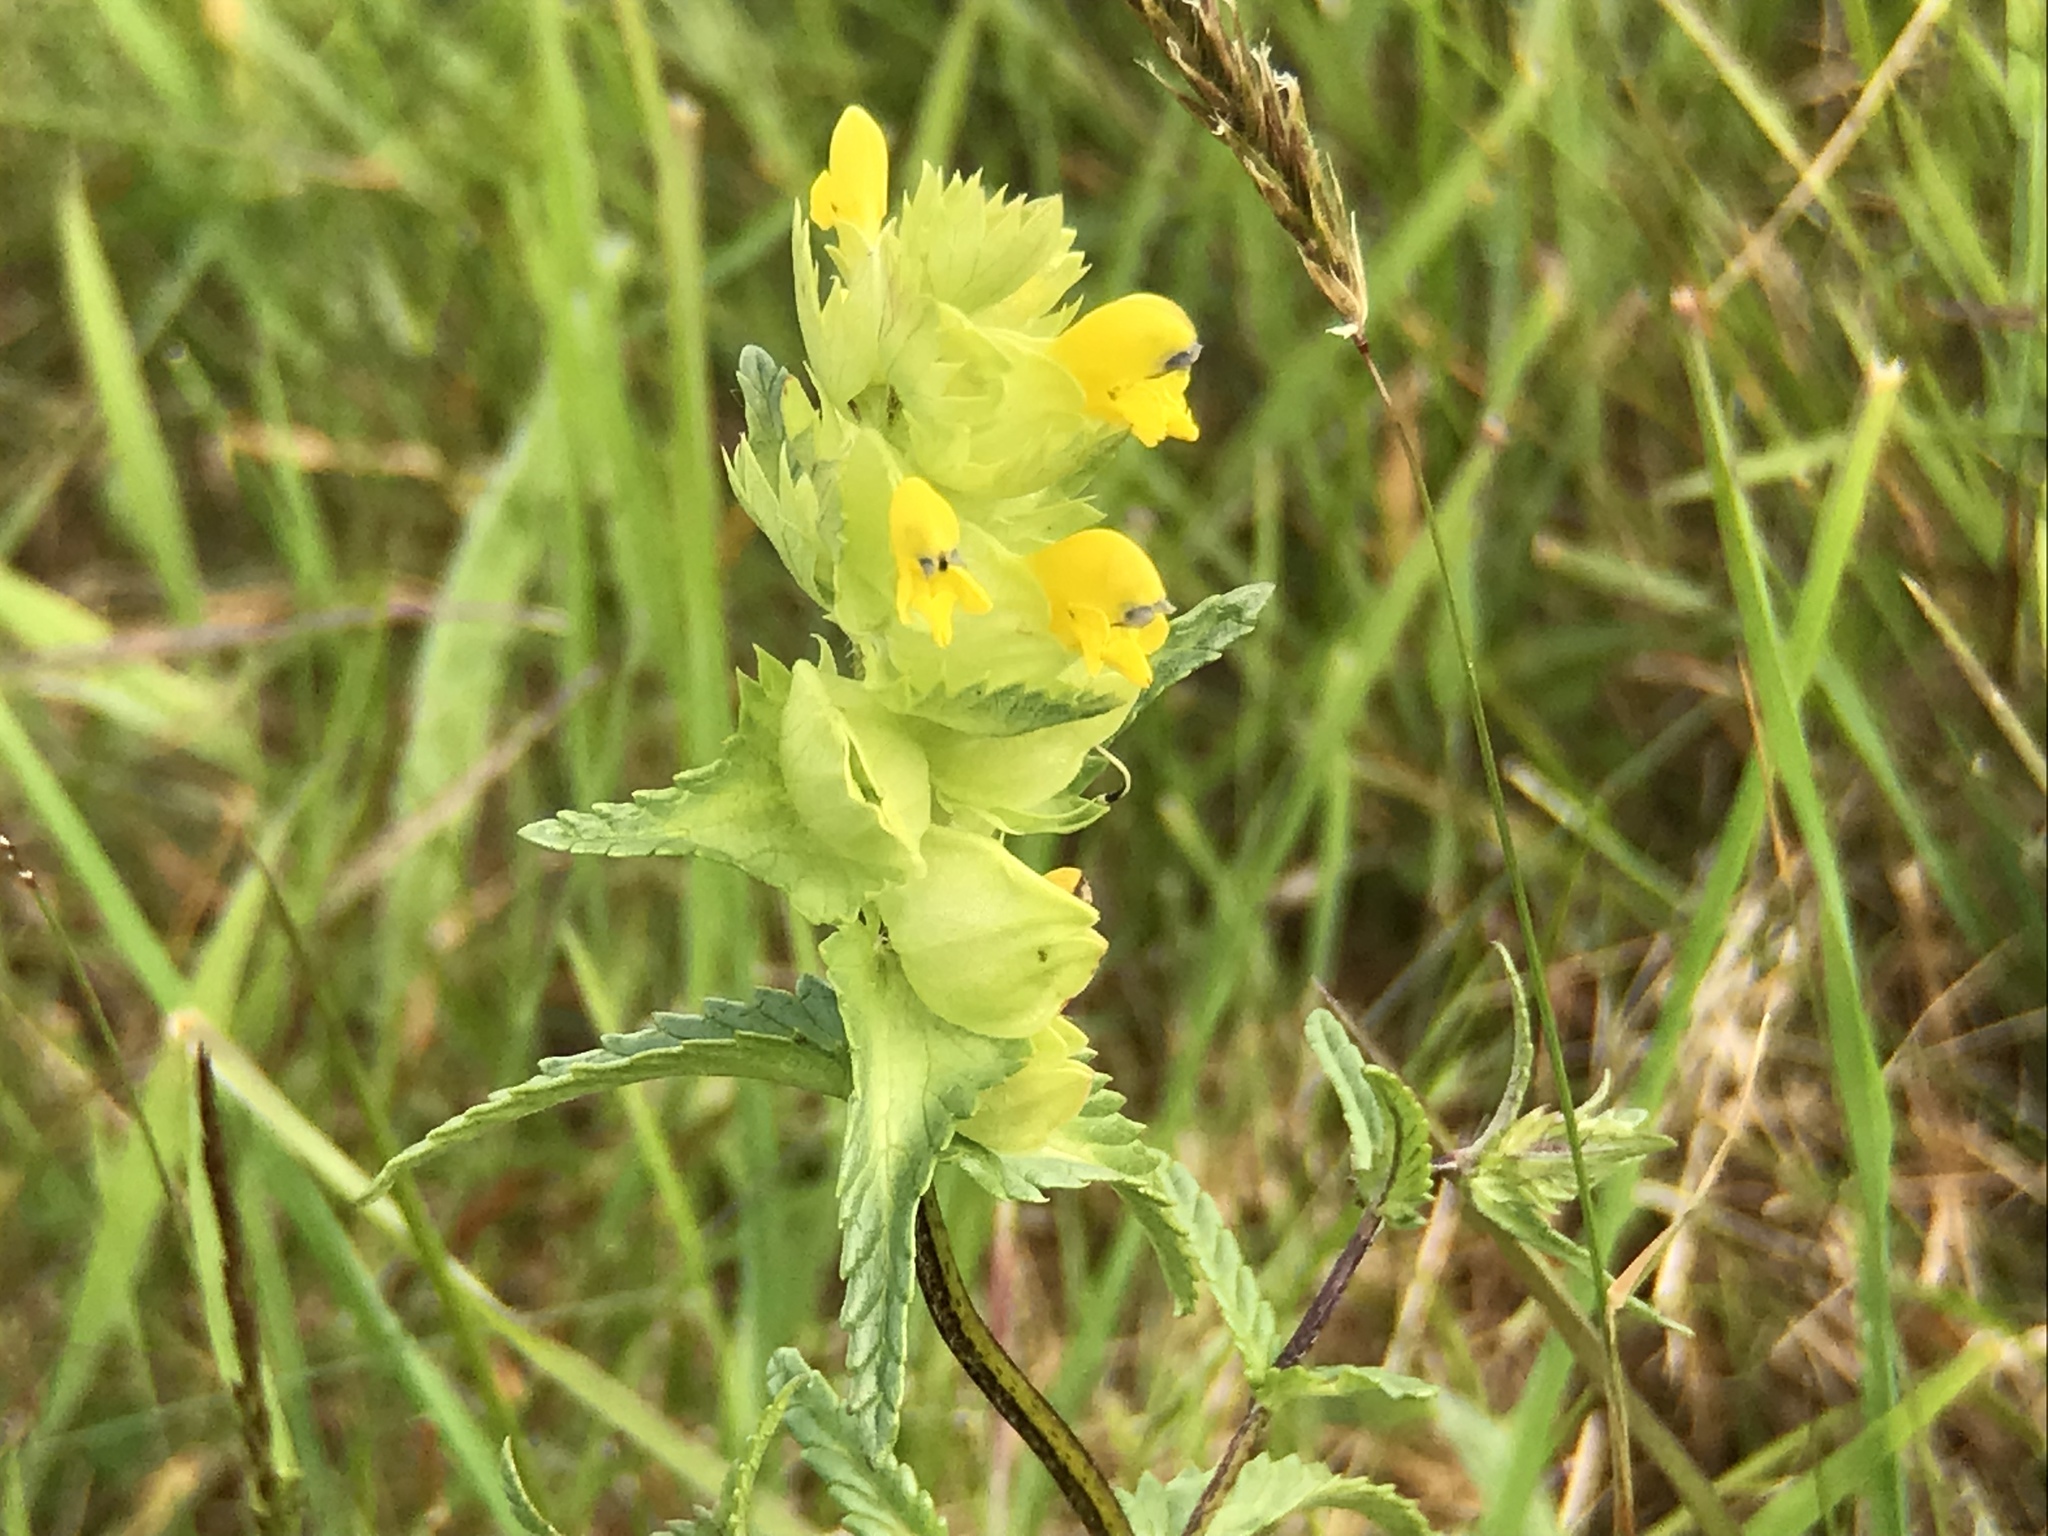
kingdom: Plantae
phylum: Tracheophyta
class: Magnoliopsida
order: Lamiales
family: Orobanchaceae
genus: Rhinanthus
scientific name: Rhinanthus minor
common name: Yellow-rattle
